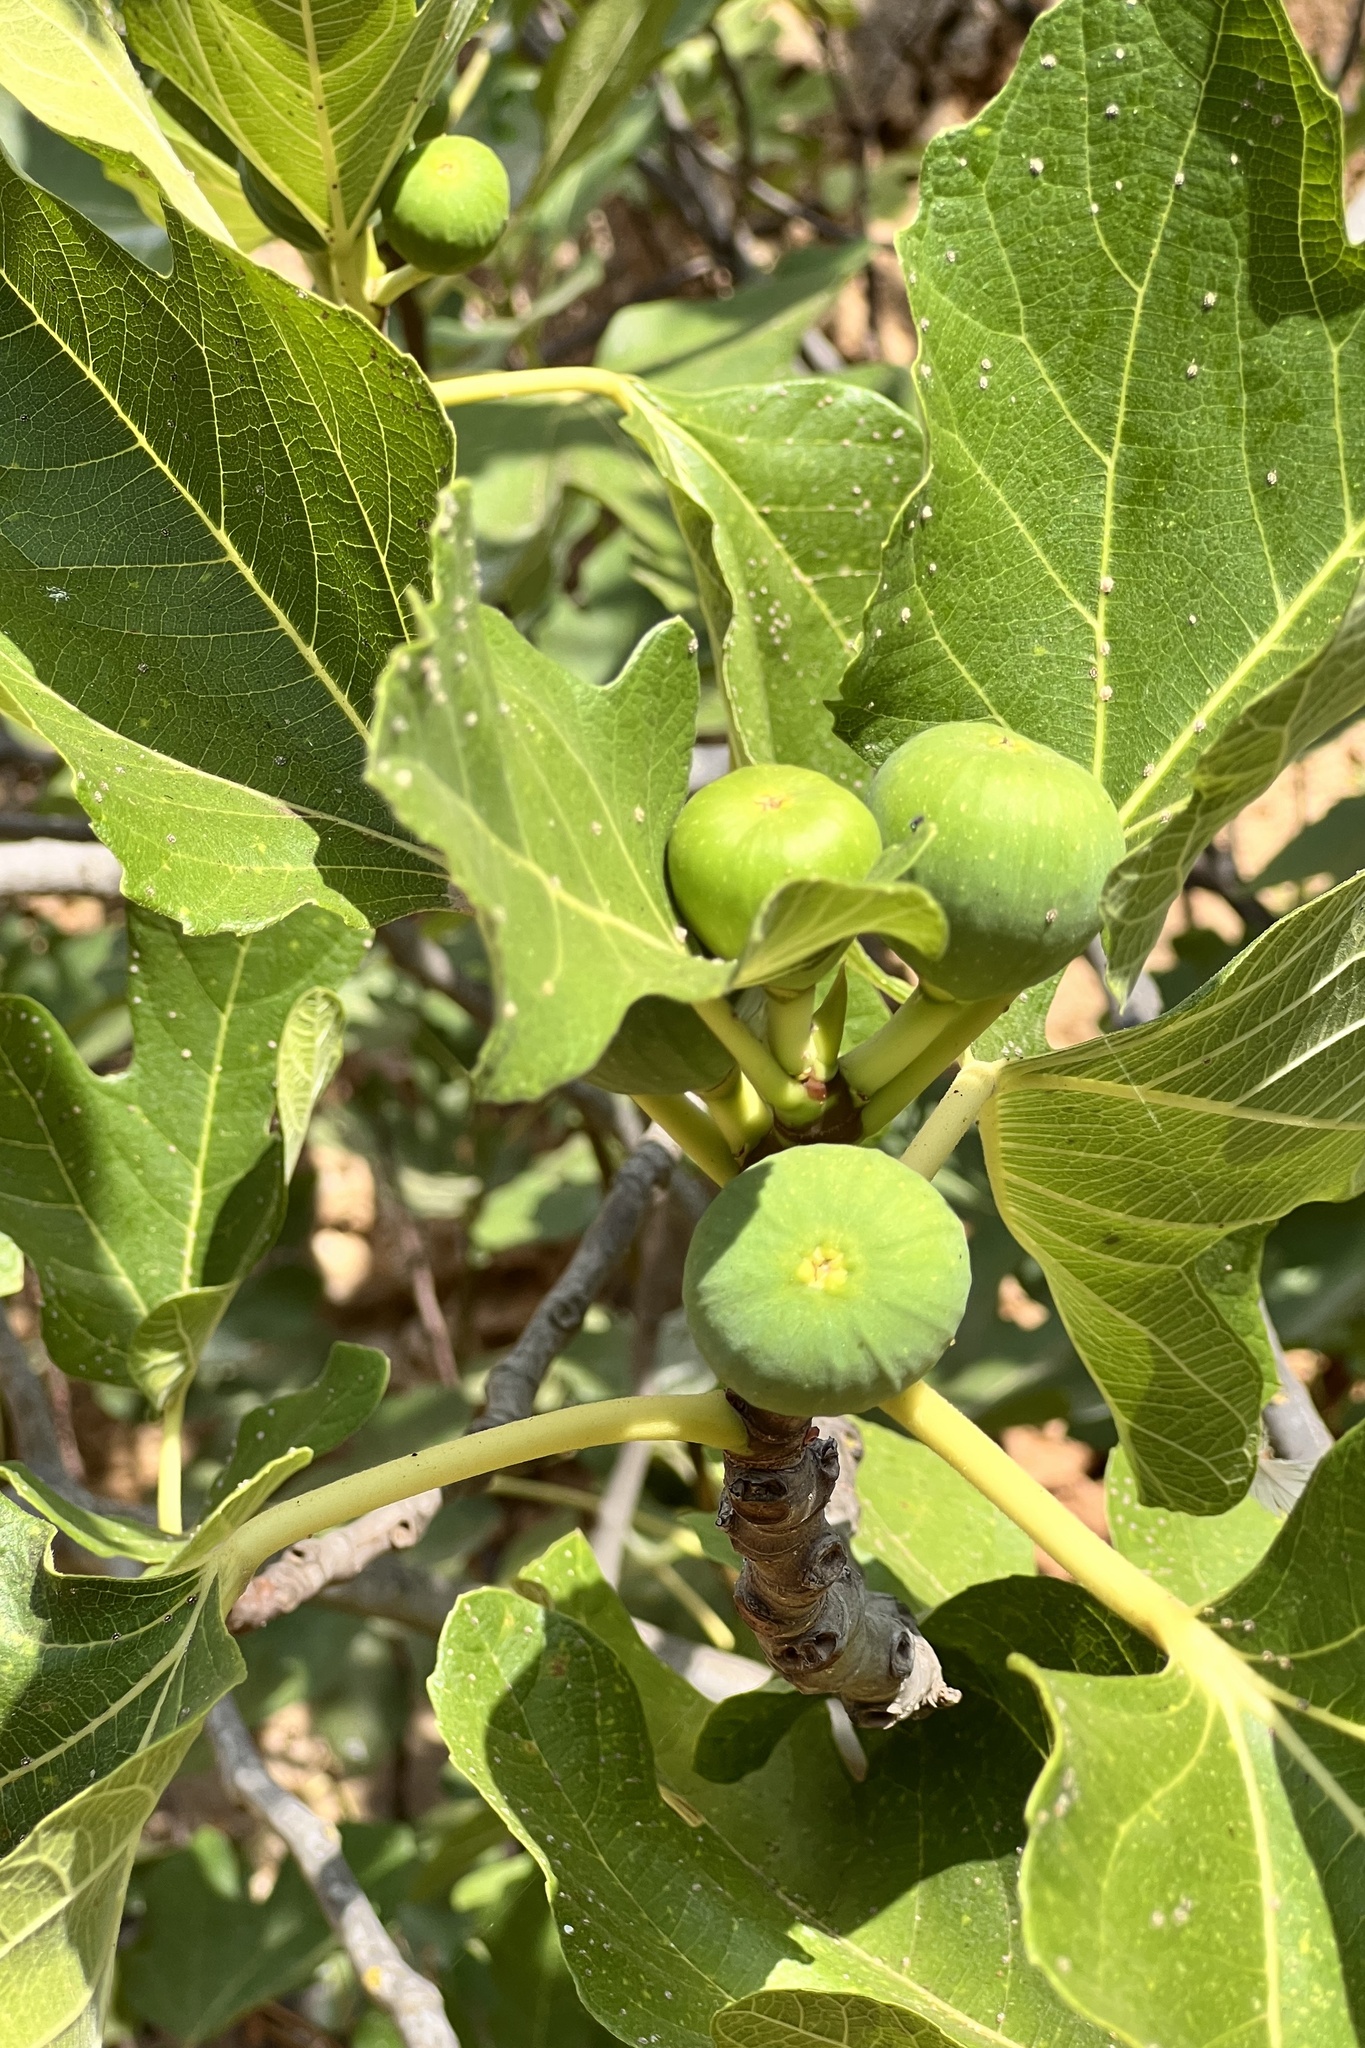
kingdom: Plantae
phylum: Tracheophyta
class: Magnoliopsida
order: Rosales
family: Moraceae
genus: Ficus
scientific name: Ficus carica
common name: Fig
